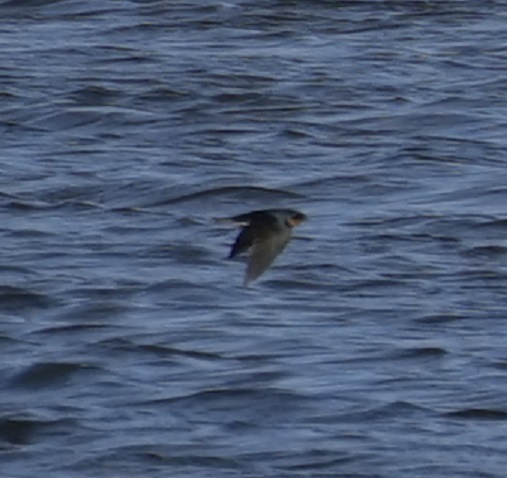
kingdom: Animalia
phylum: Chordata
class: Aves
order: Passeriformes
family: Hirundinidae
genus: Hirundo
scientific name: Hirundo neoxena
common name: Welcome swallow
